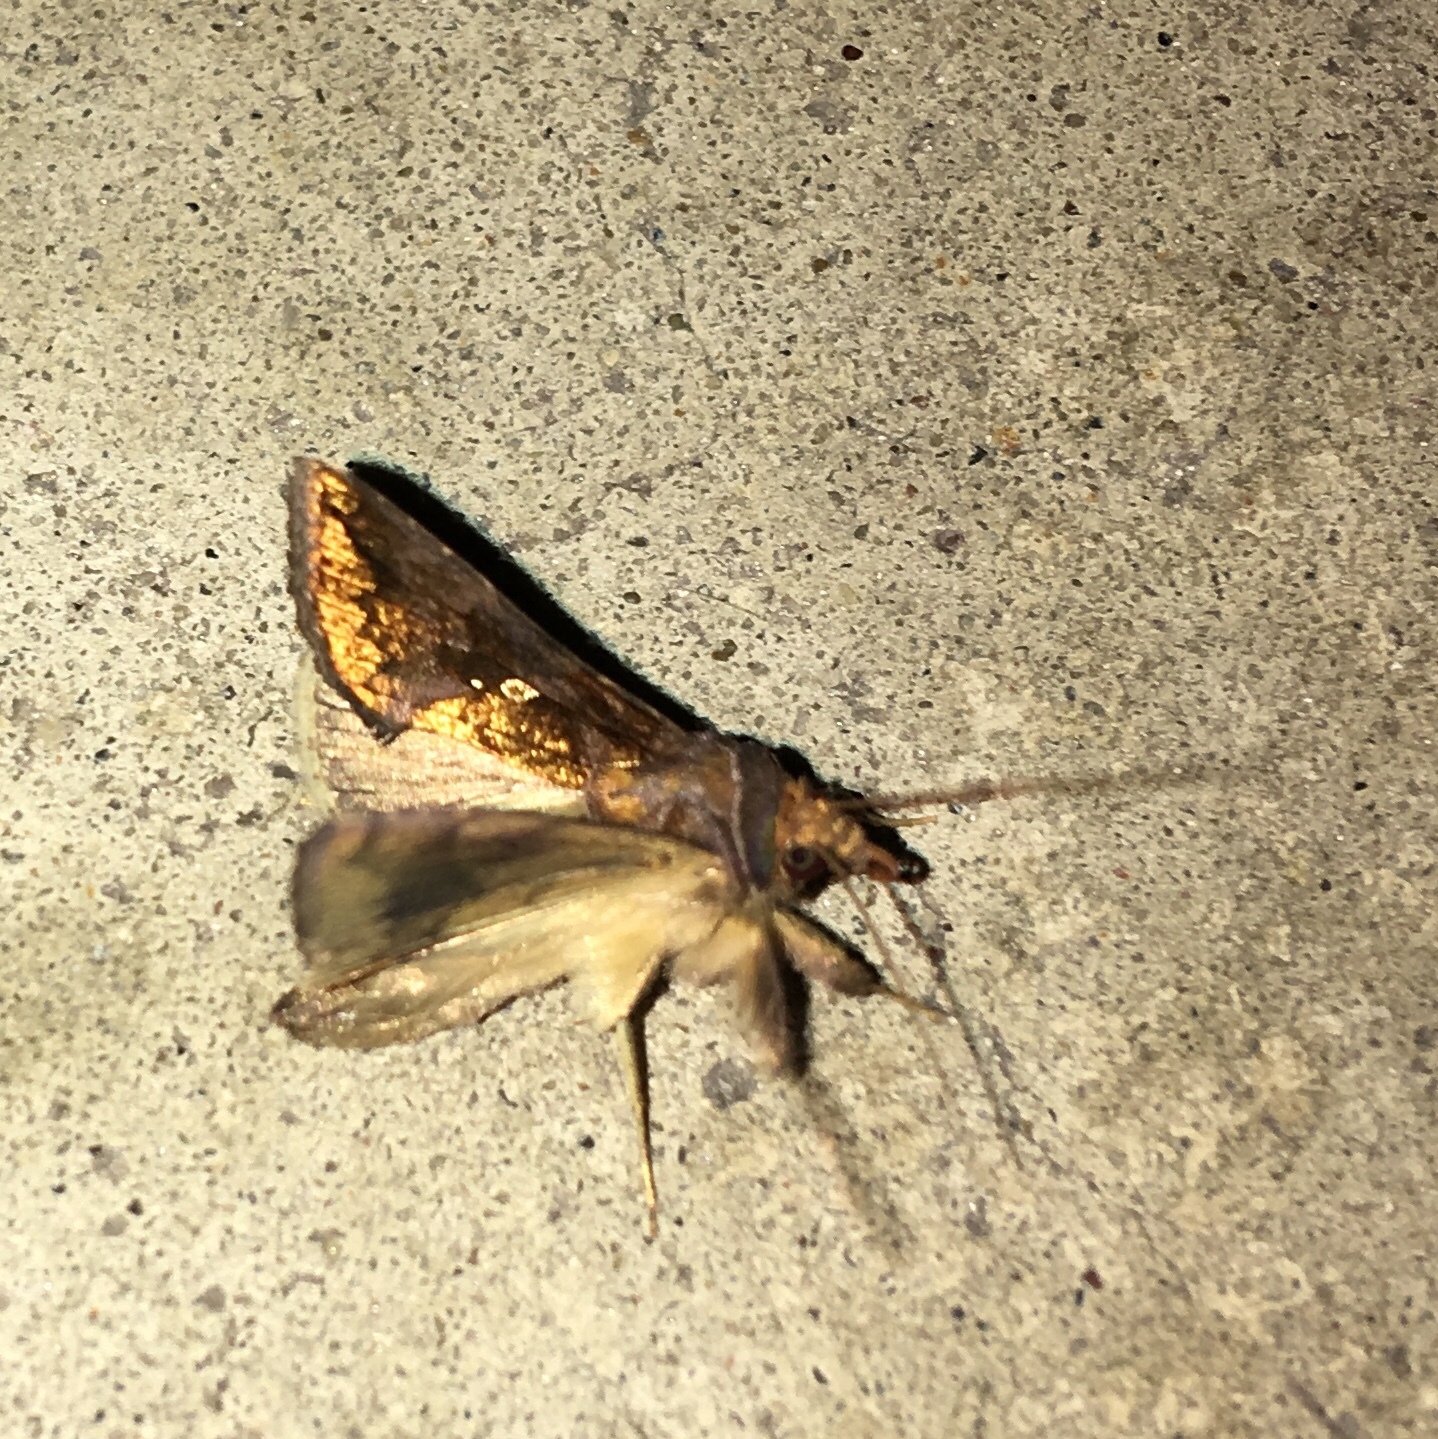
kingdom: Animalia
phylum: Arthropoda
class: Insecta
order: Lepidoptera
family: Noctuidae
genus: Argyrogramma
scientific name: Argyrogramma verruca
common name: Golden looper moth
